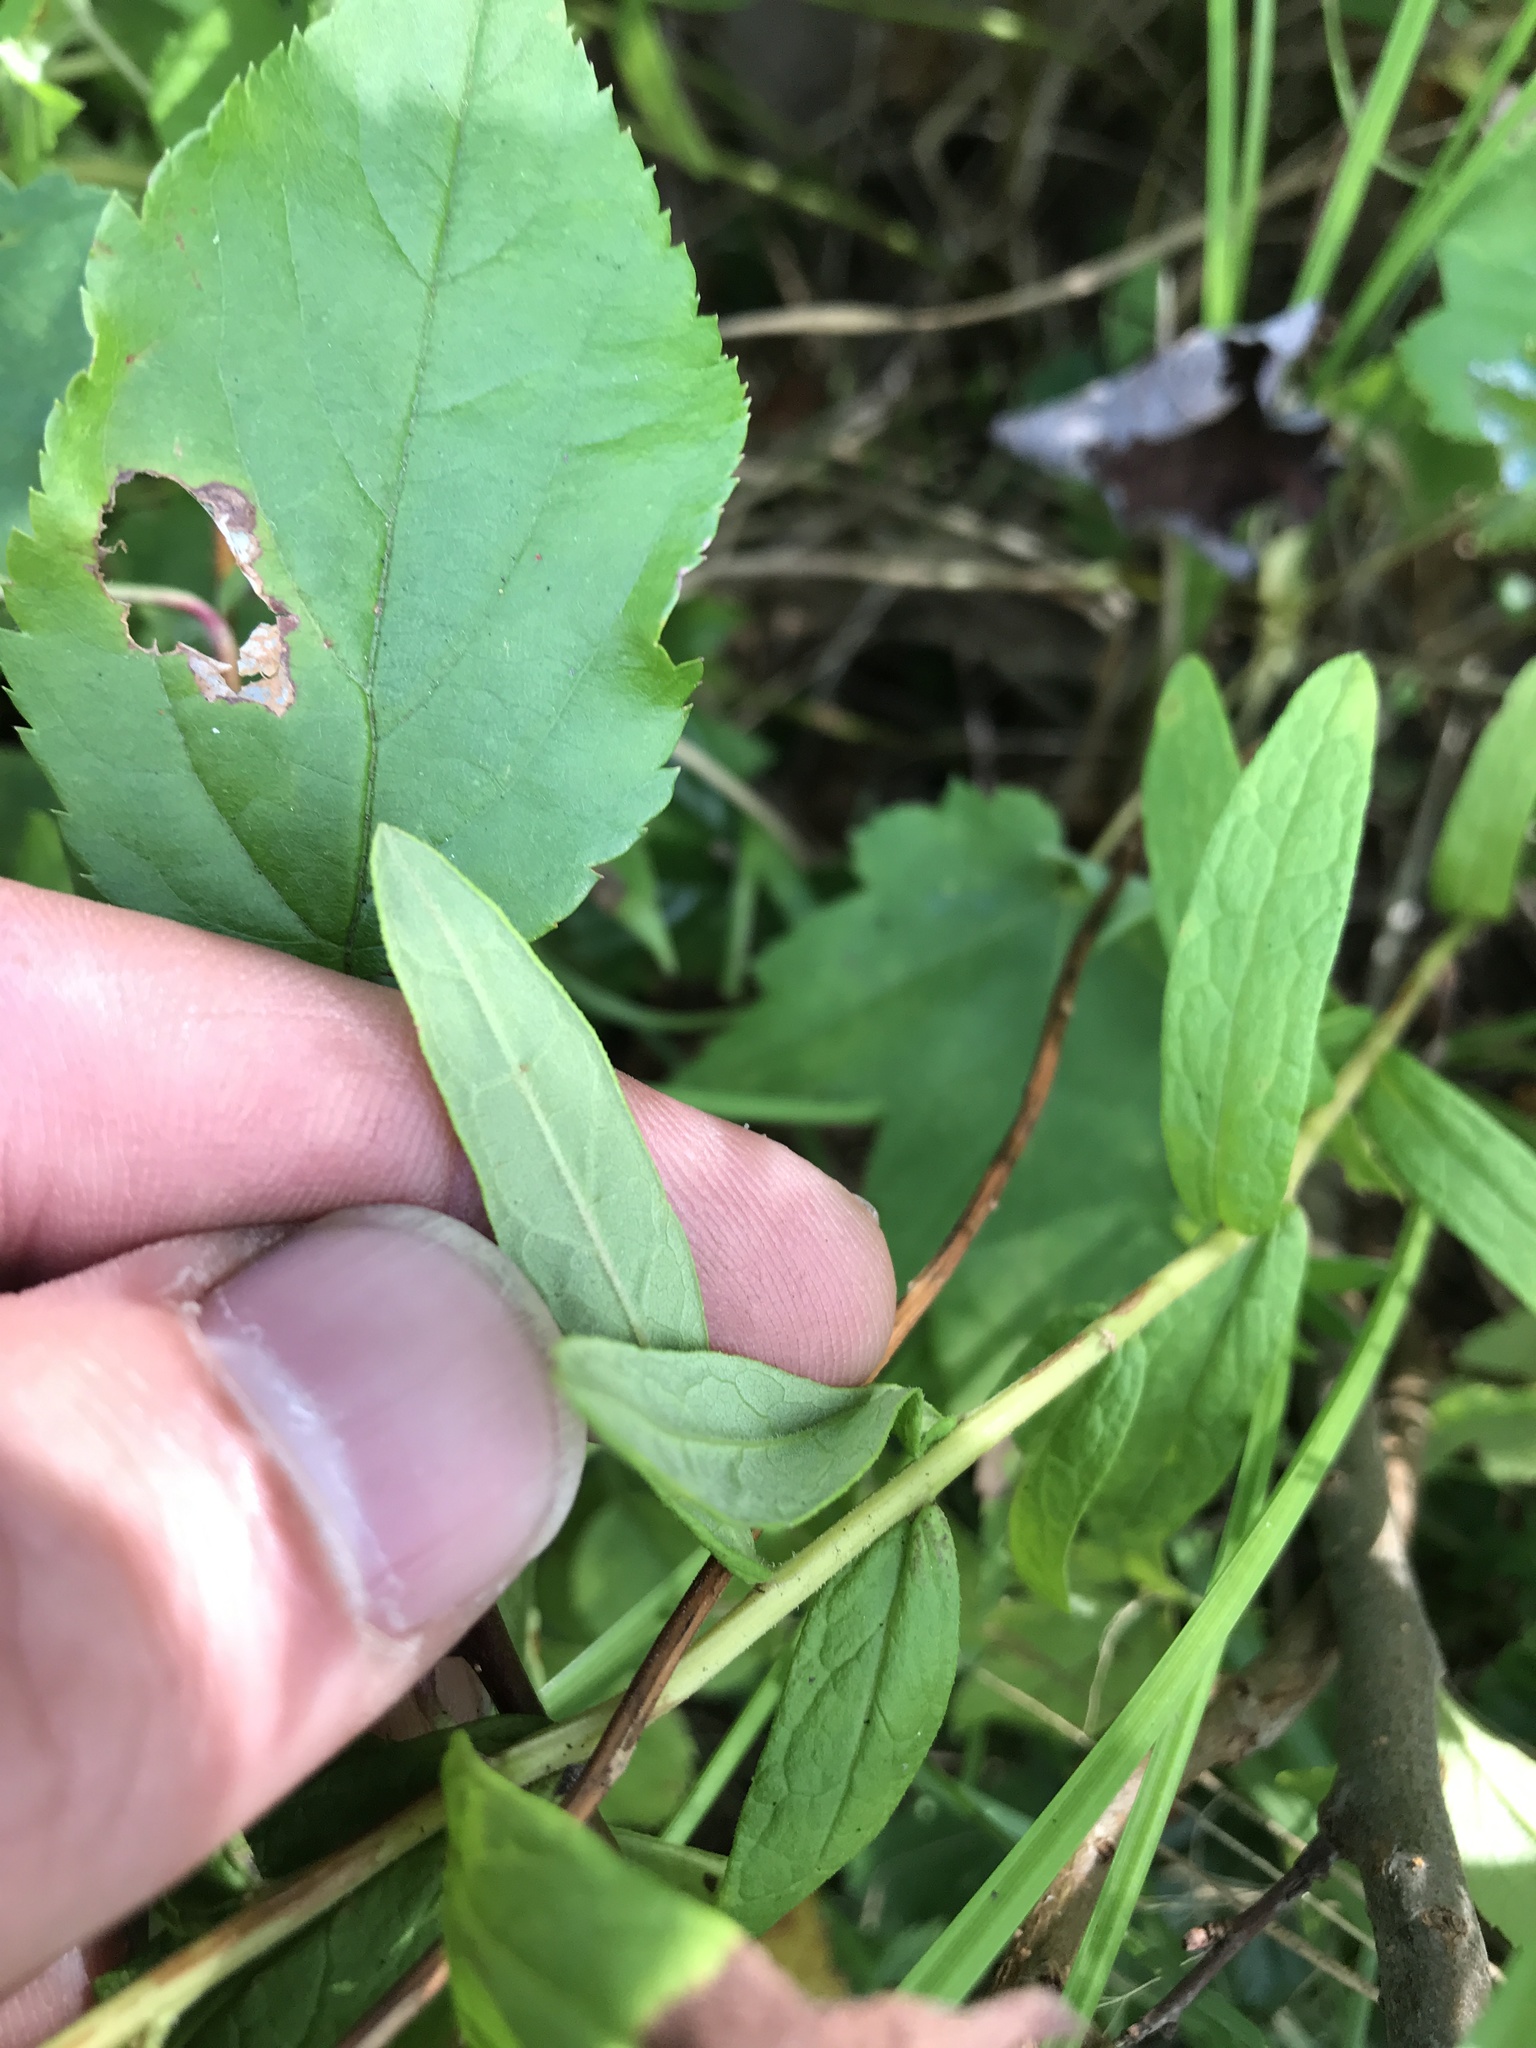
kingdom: Plantae
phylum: Tracheophyta
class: Magnoliopsida
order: Asterales
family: Asteraceae
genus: Oclemena
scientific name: Oclemena nemoralis
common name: Bog aster
